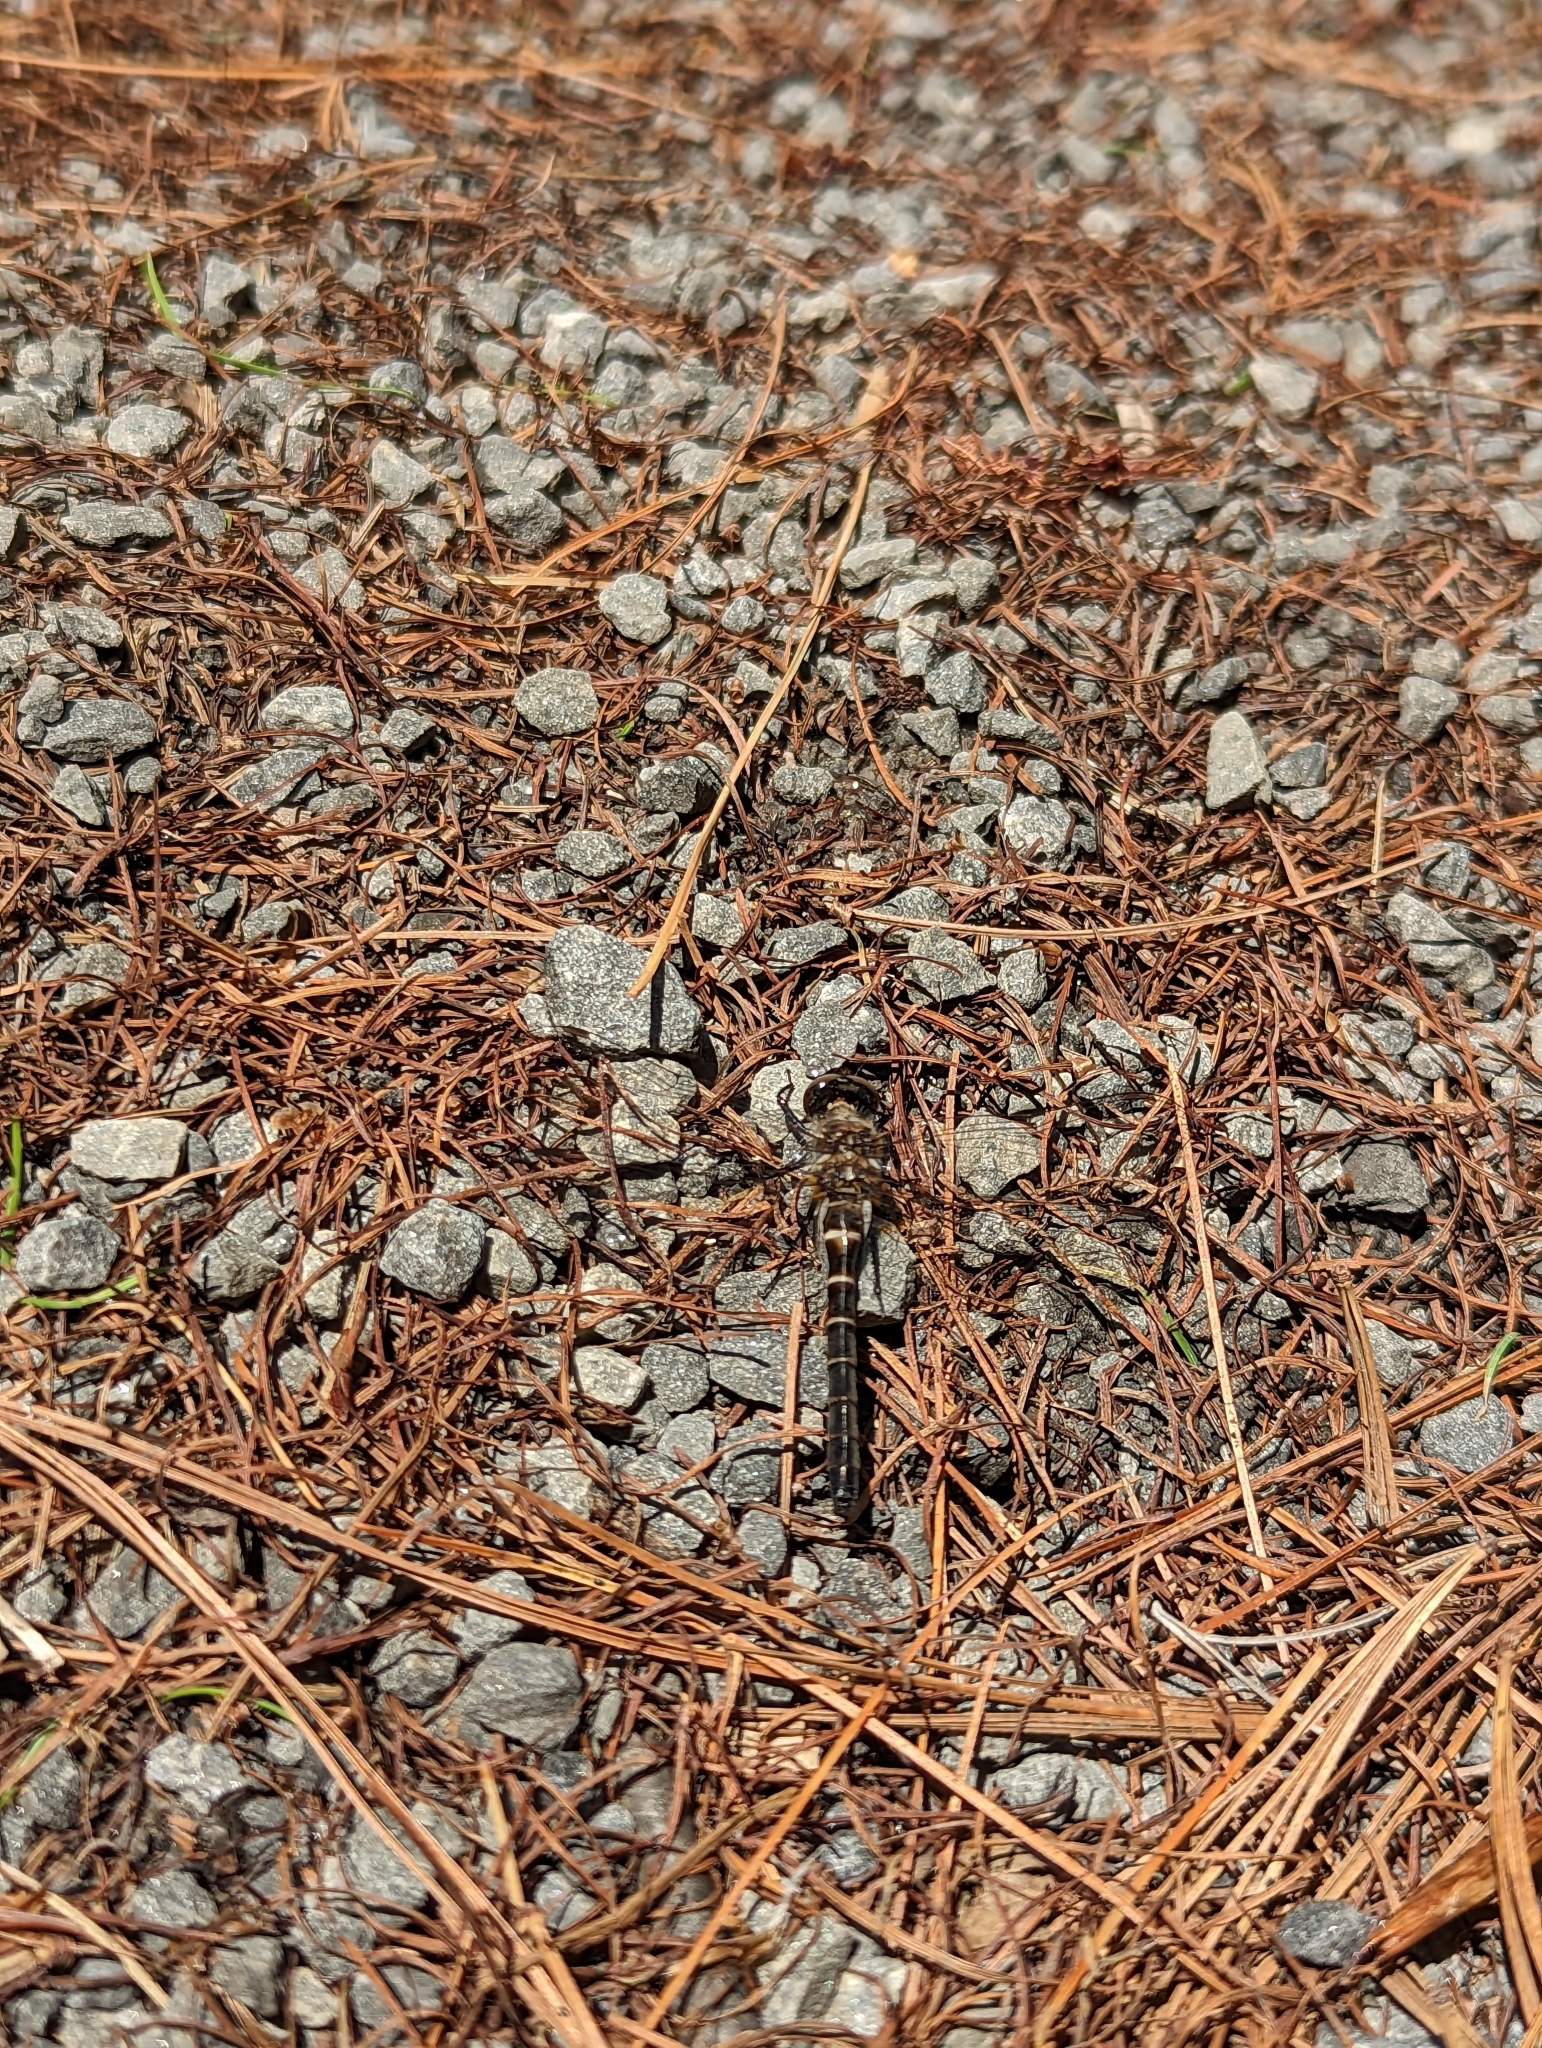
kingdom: Animalia
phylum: Arthropoda
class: Insecta
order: Odonata
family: Corduliidae
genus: Williamsonia
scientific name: Williamsonia fletcheri
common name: Ebony boghaunter
